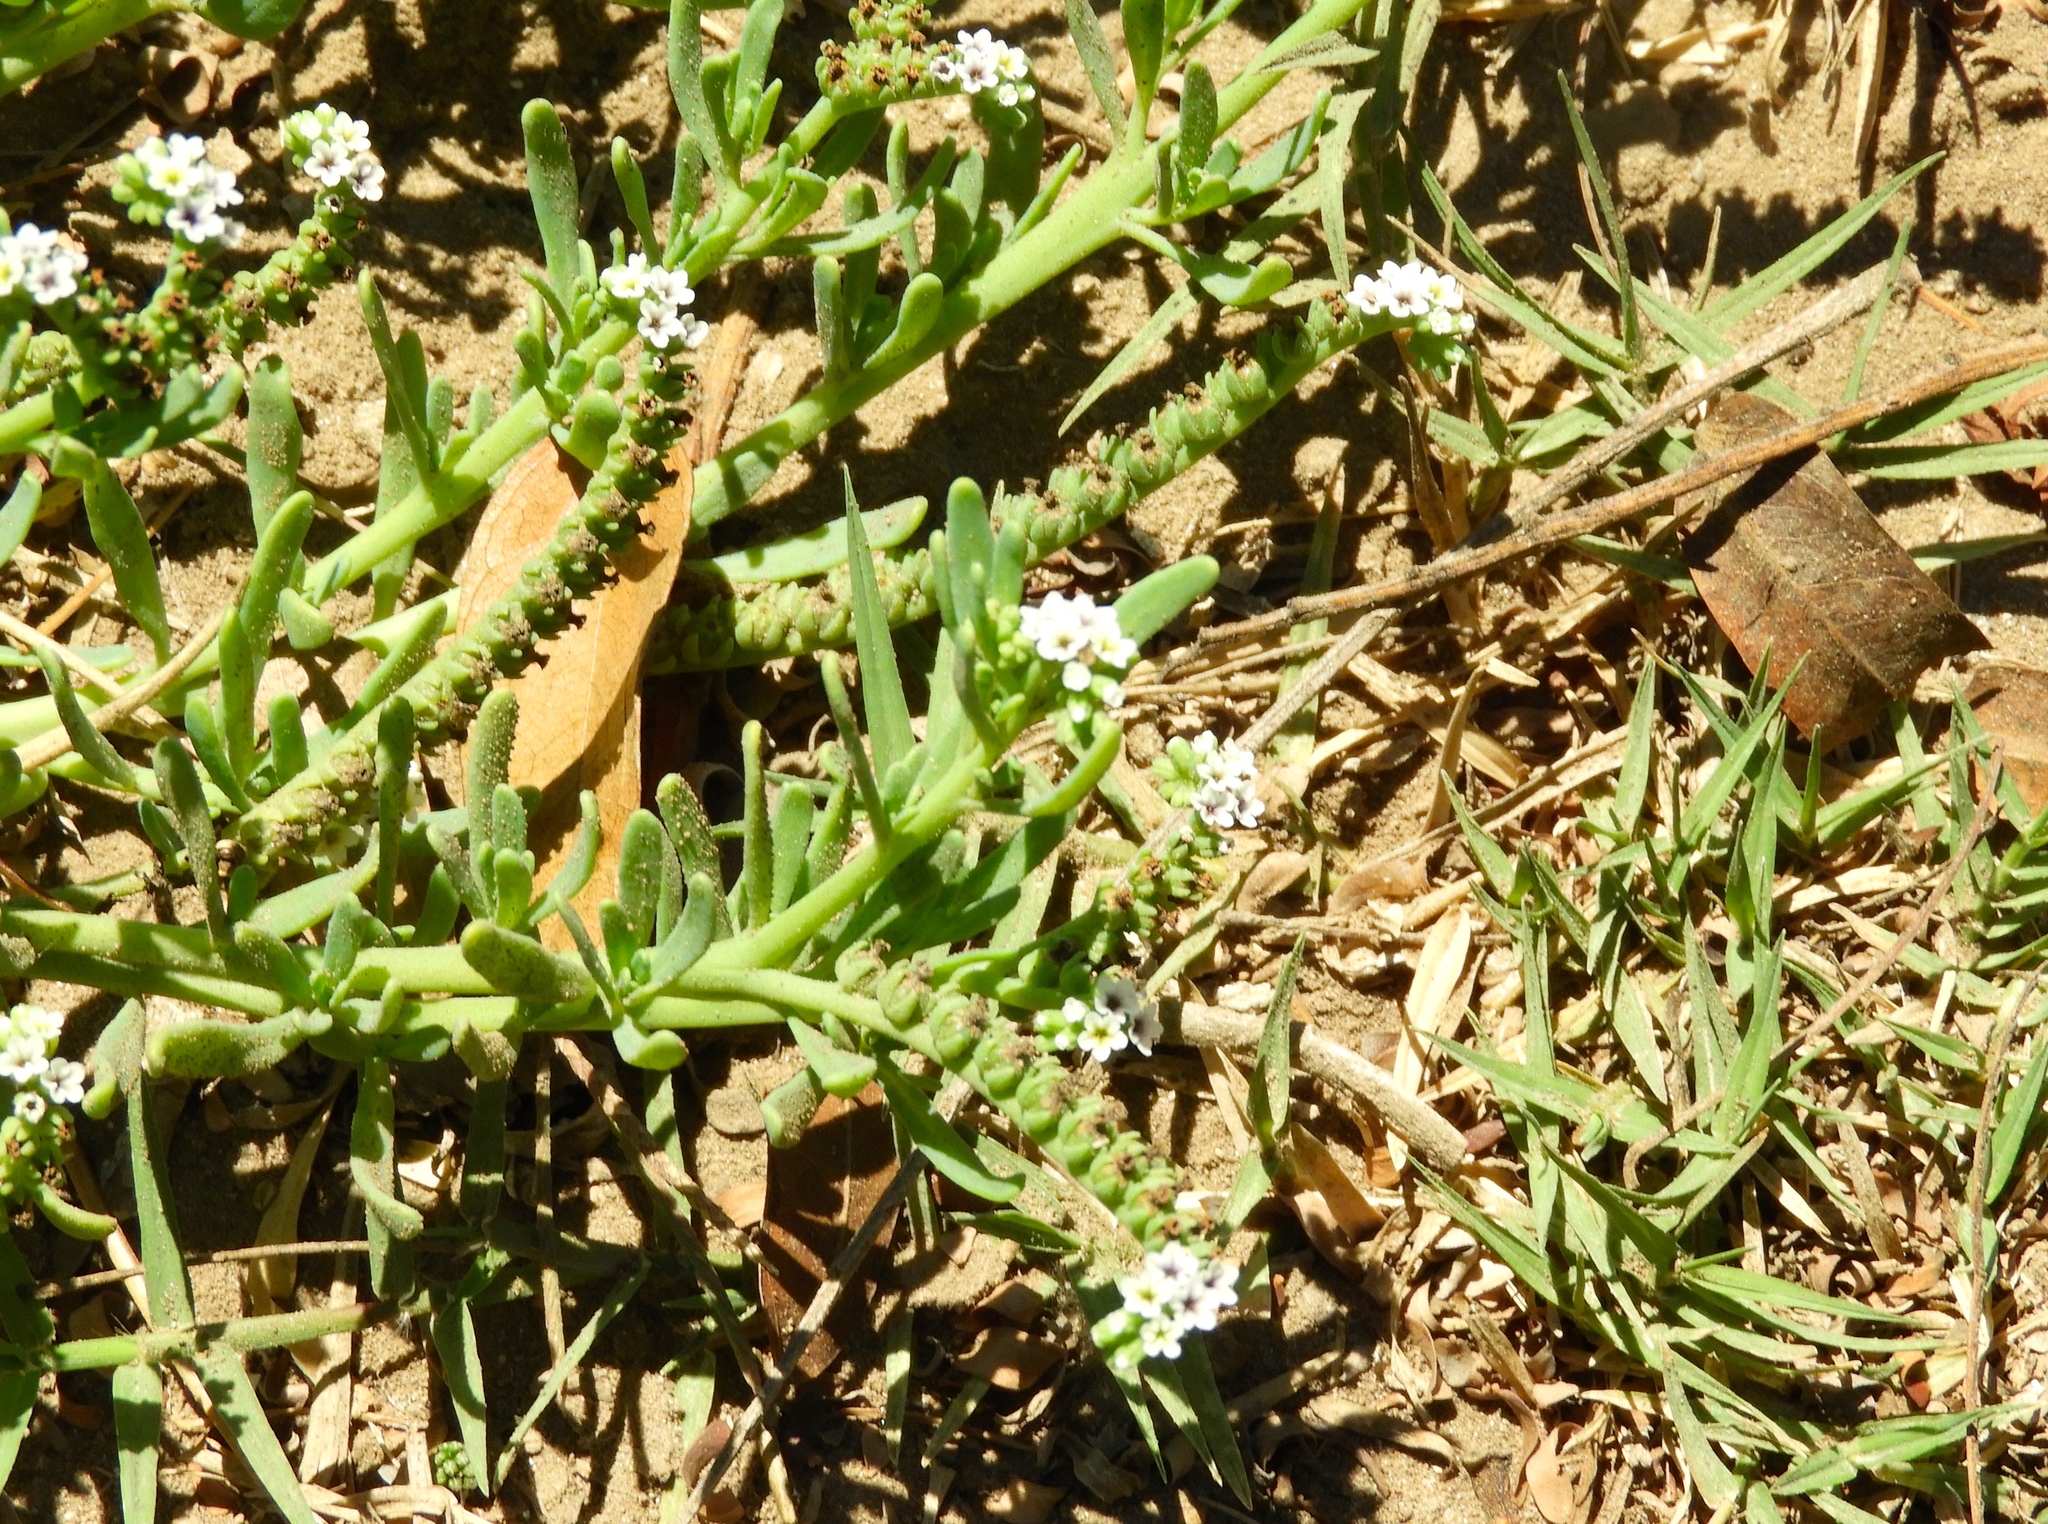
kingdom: Plantae
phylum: Tracheophyta
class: Magnoliopsida
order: Boraginales
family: Heliotropiaceae
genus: Heliotropium
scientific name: Heliotropium curassavicum
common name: Seaside heliotrope
